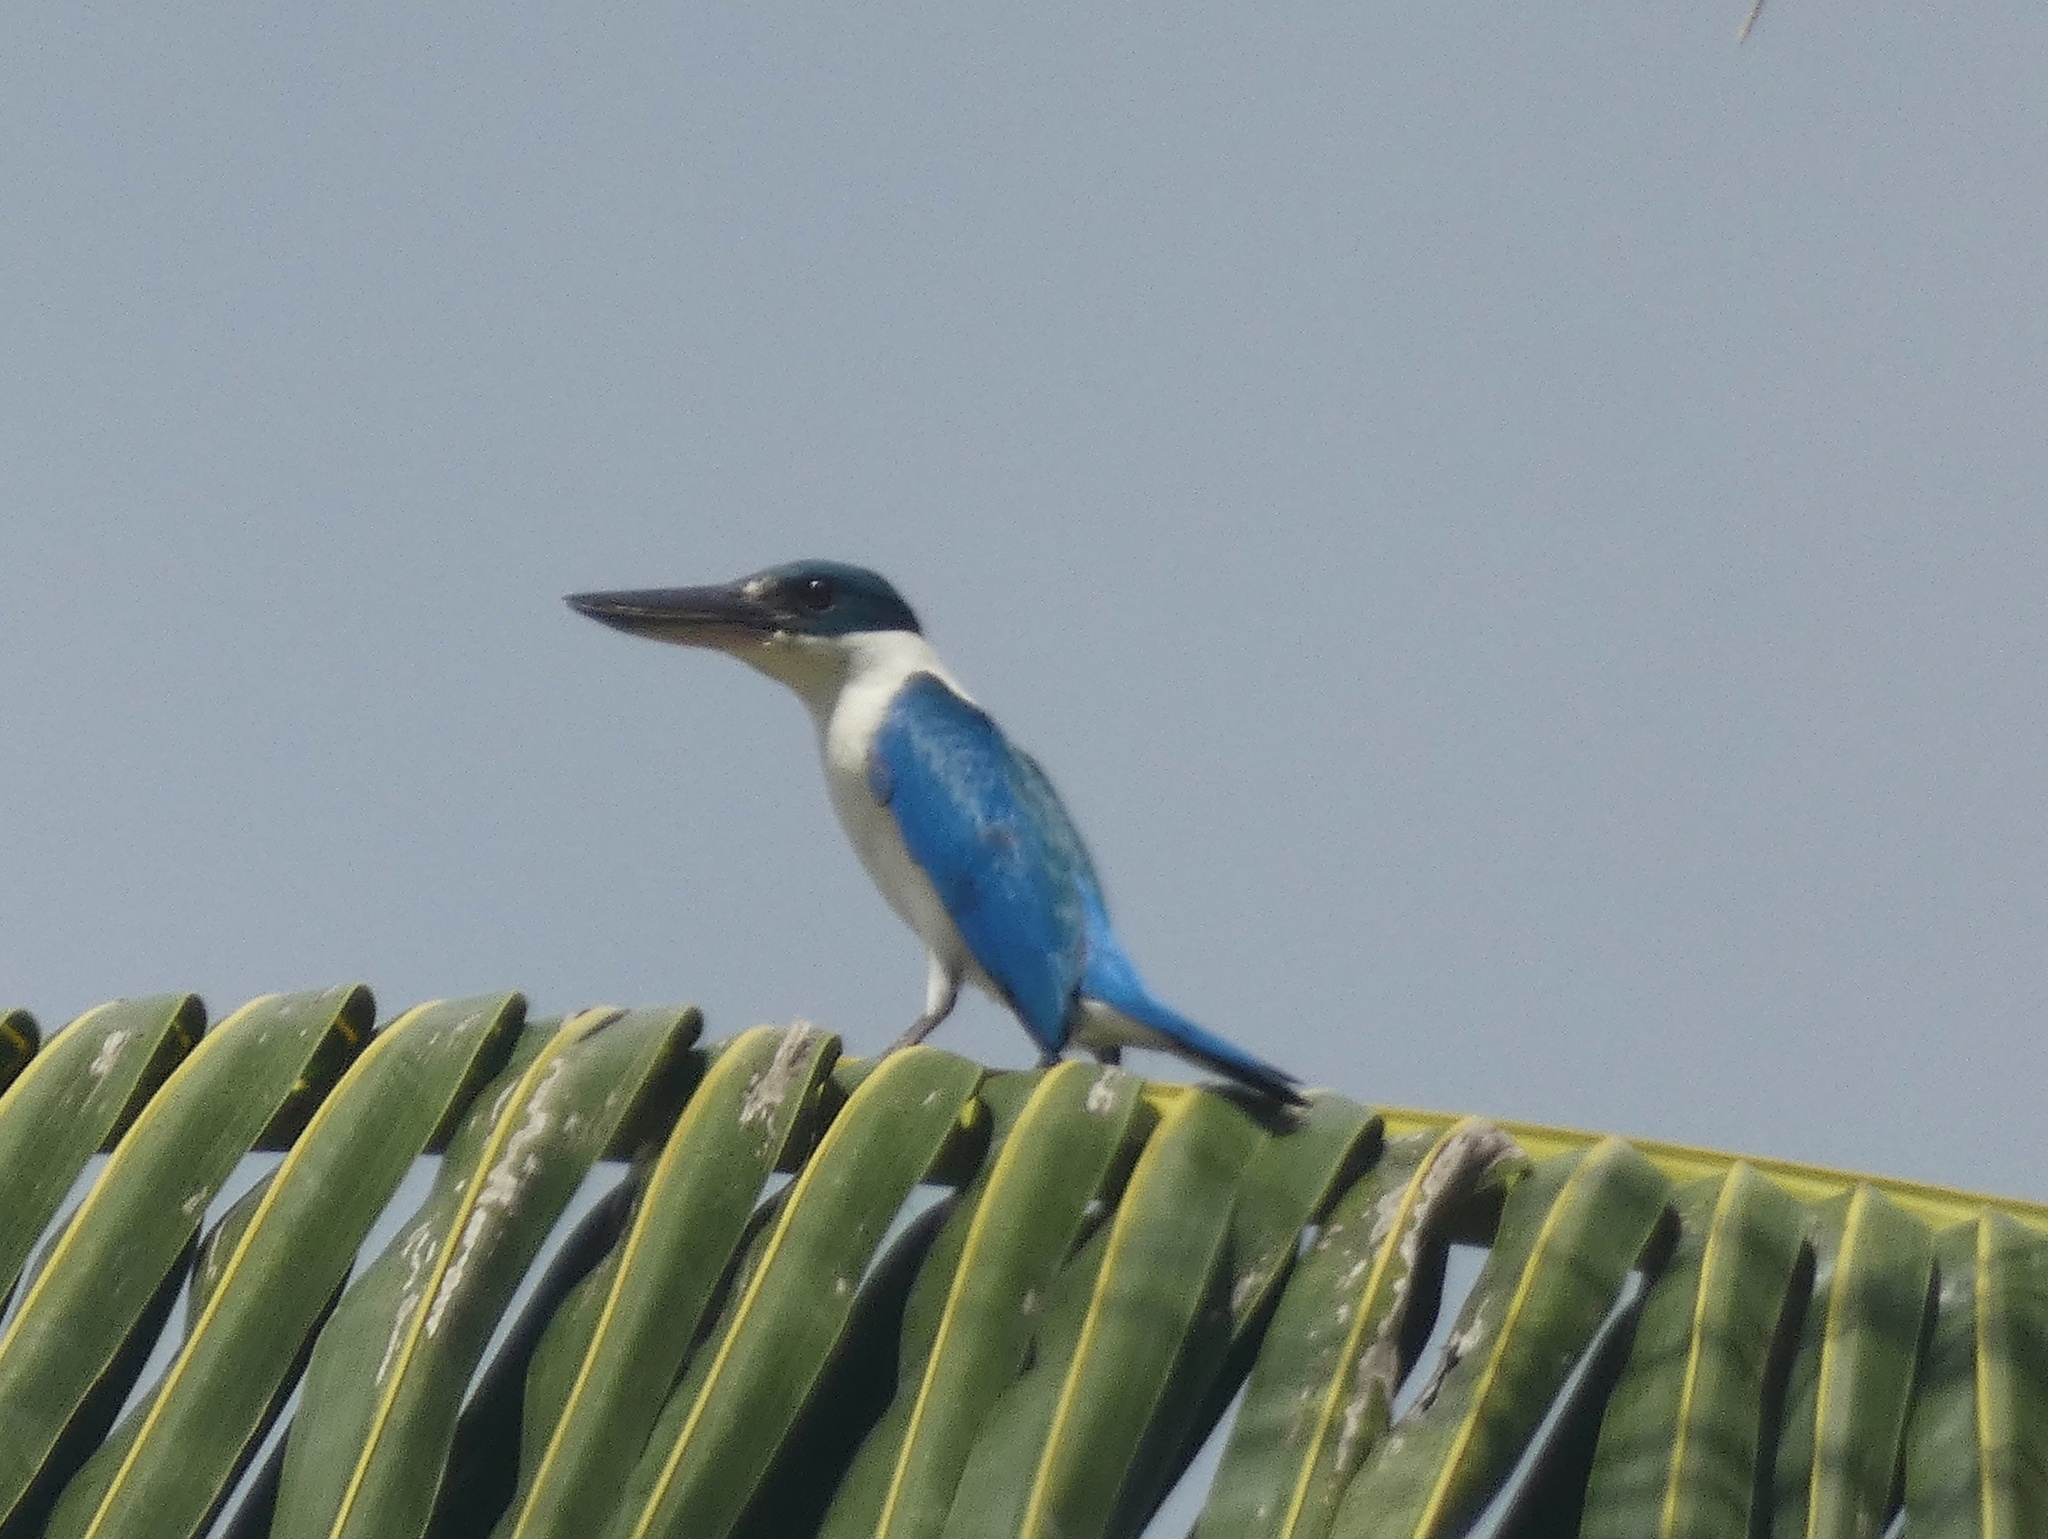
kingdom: Animalia
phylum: Chordata
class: Aves
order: Coraciiformes
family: Alcedinidae
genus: Todiramphus
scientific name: Todiramphus chloris
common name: Collared kingfisher
